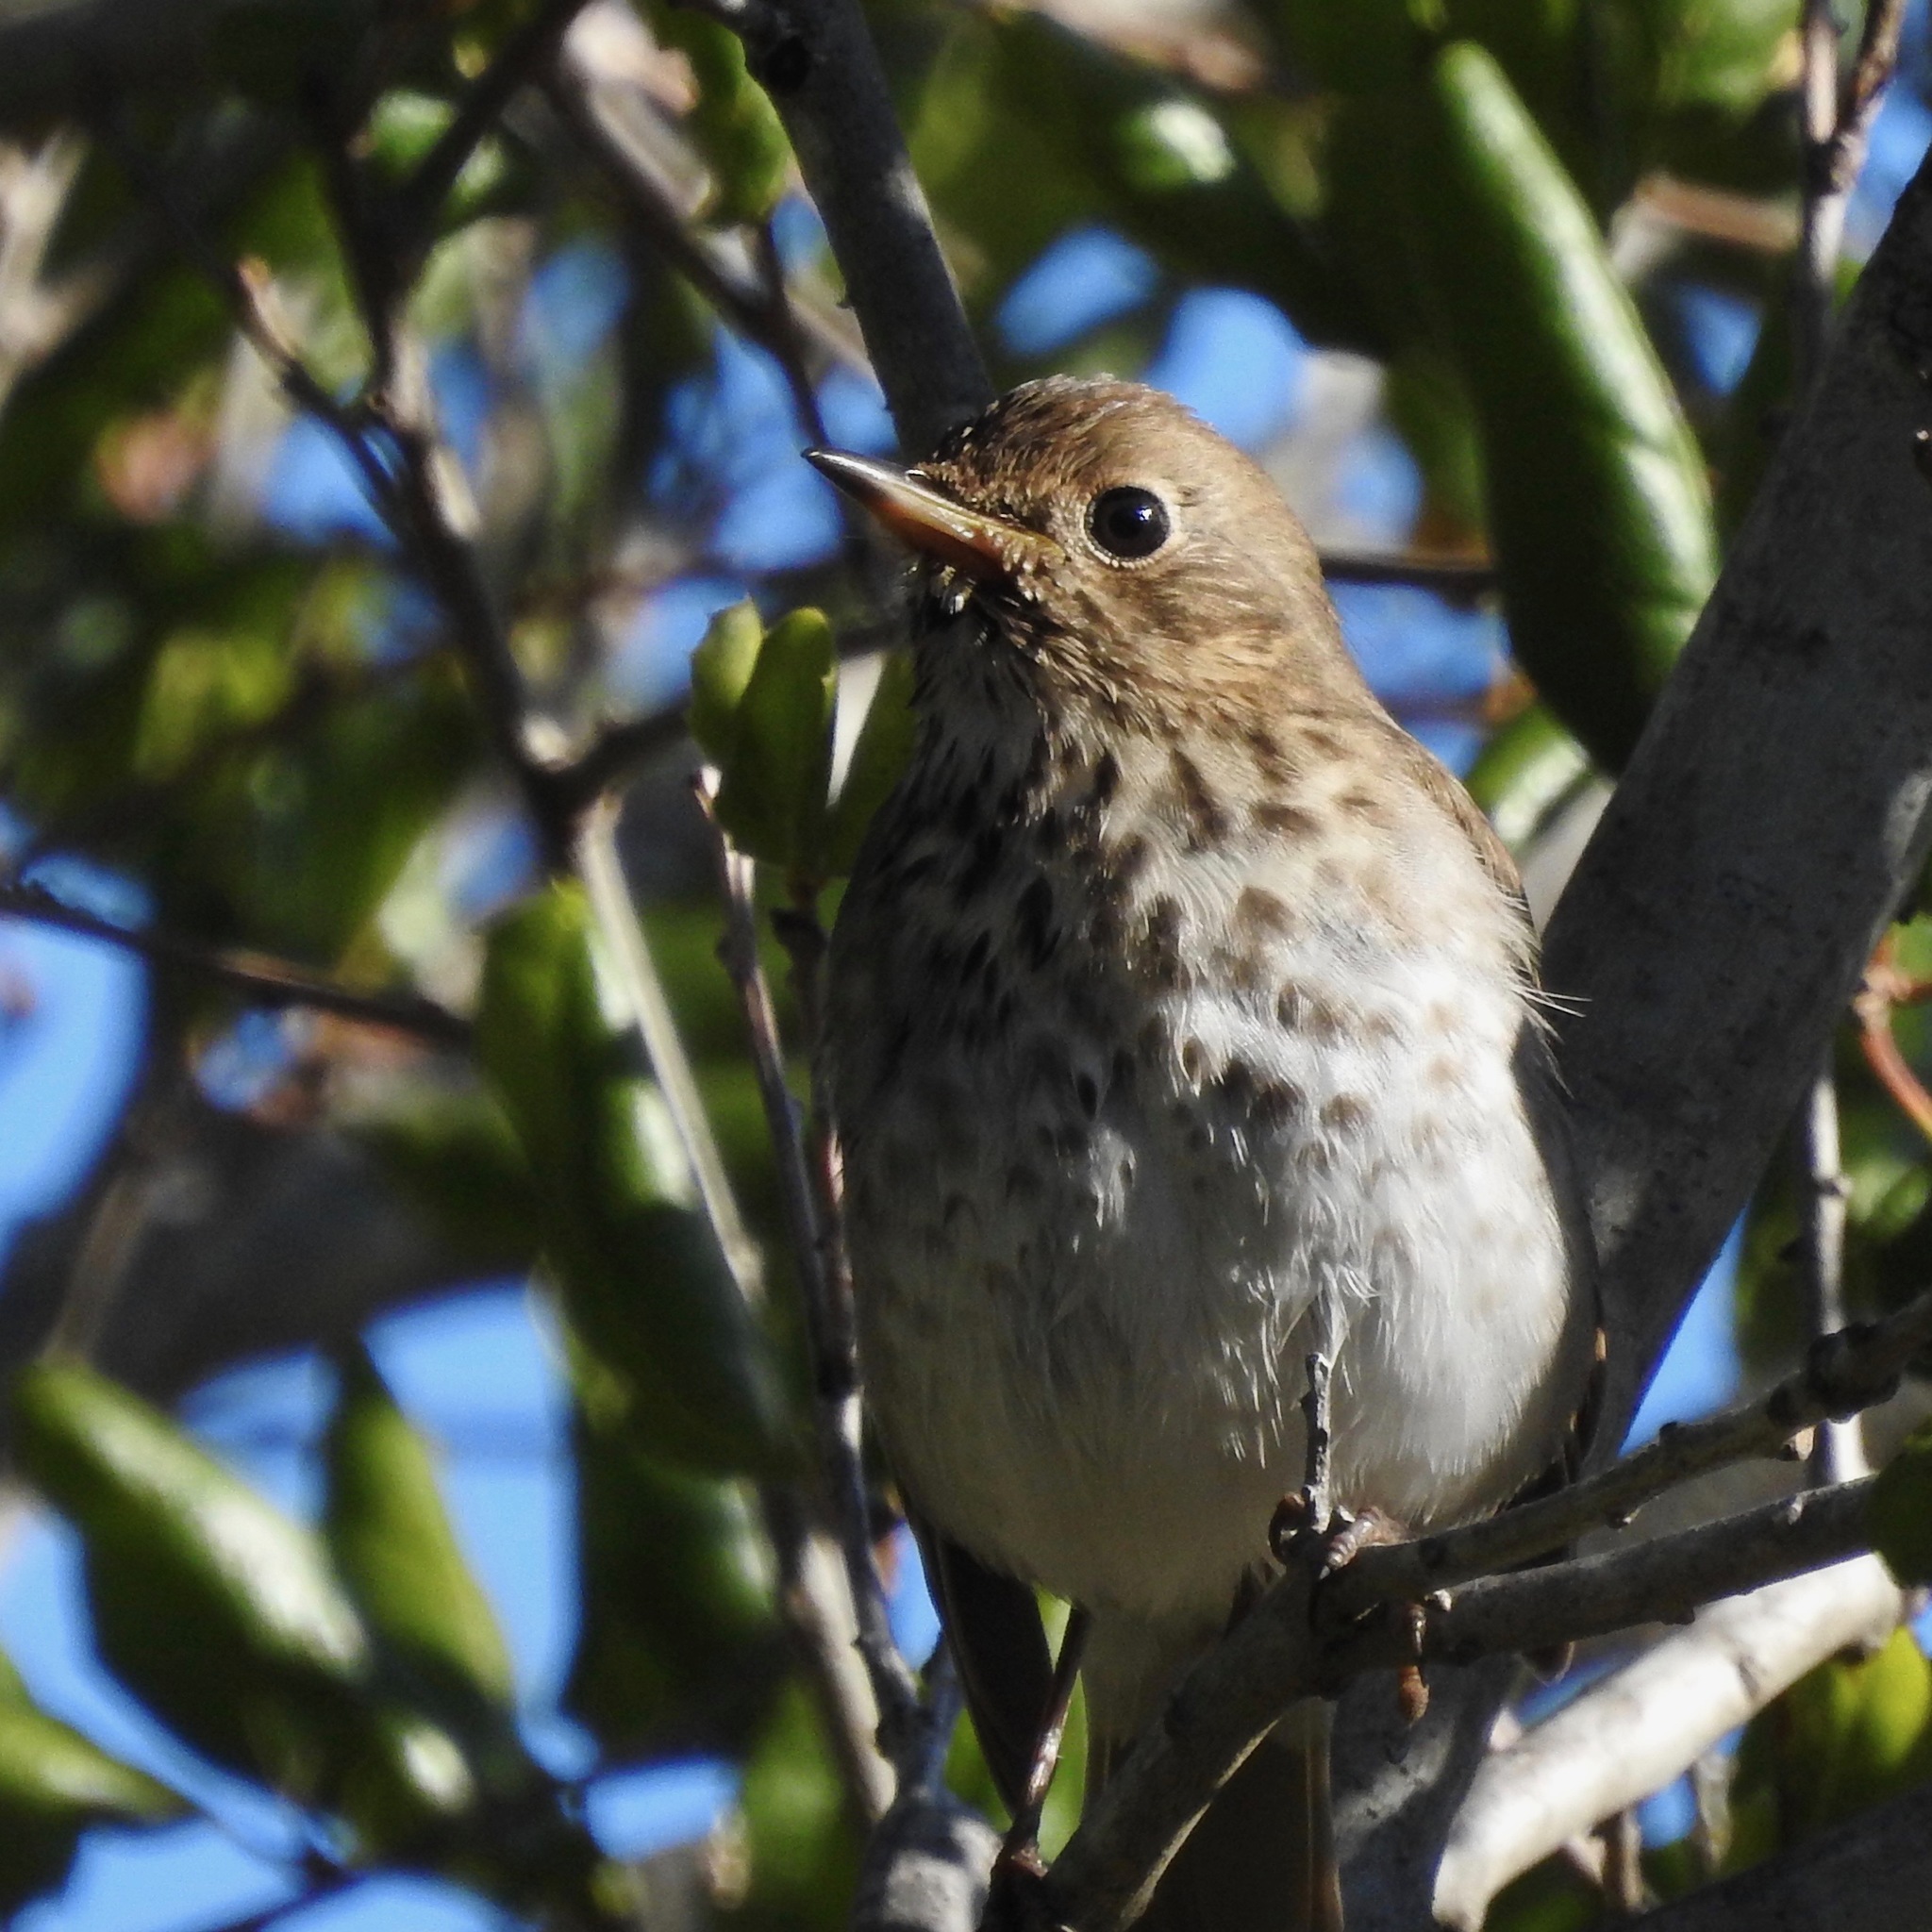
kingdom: Animalia
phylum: Chordata
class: Aves
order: Passeriformes
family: Turdidae
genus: Catharus
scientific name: Catharus guttatus
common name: Hermit thrush
